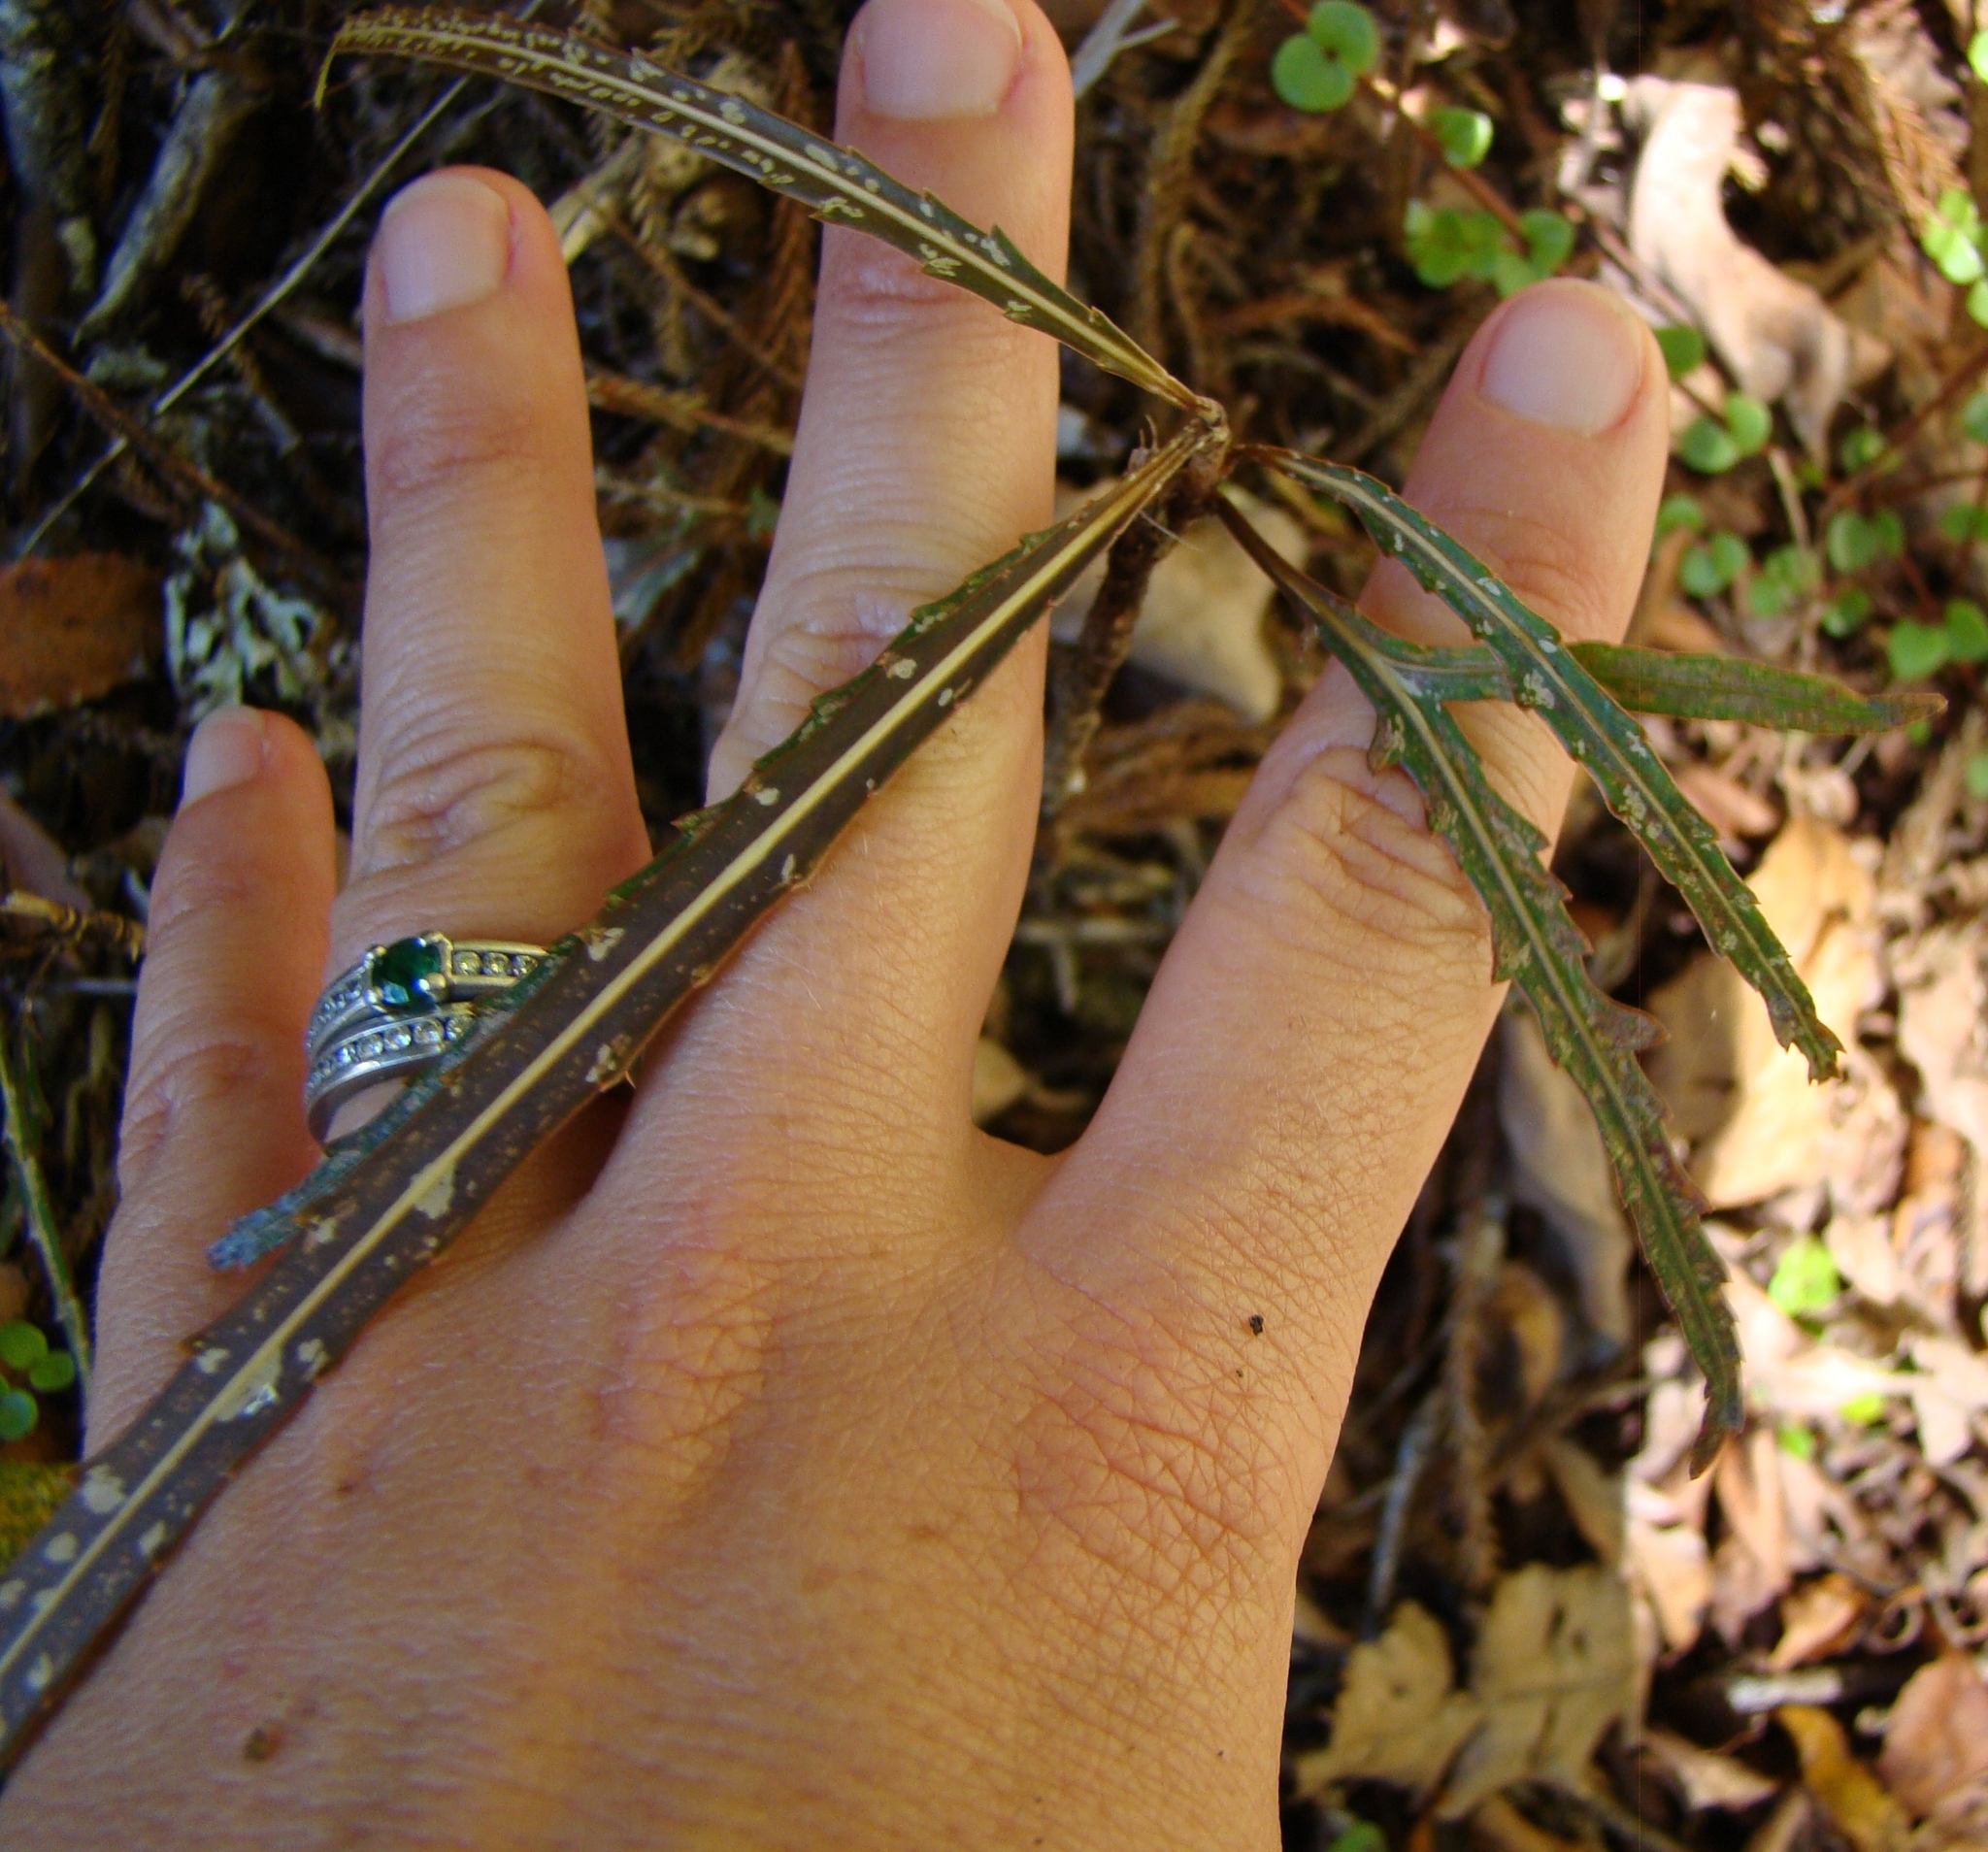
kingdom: Plantae
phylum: Tracheophyta
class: Magnoliopsida
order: Apiales
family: Araliaceae
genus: Pseudopanax
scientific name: Pseudopanax crassifolius
